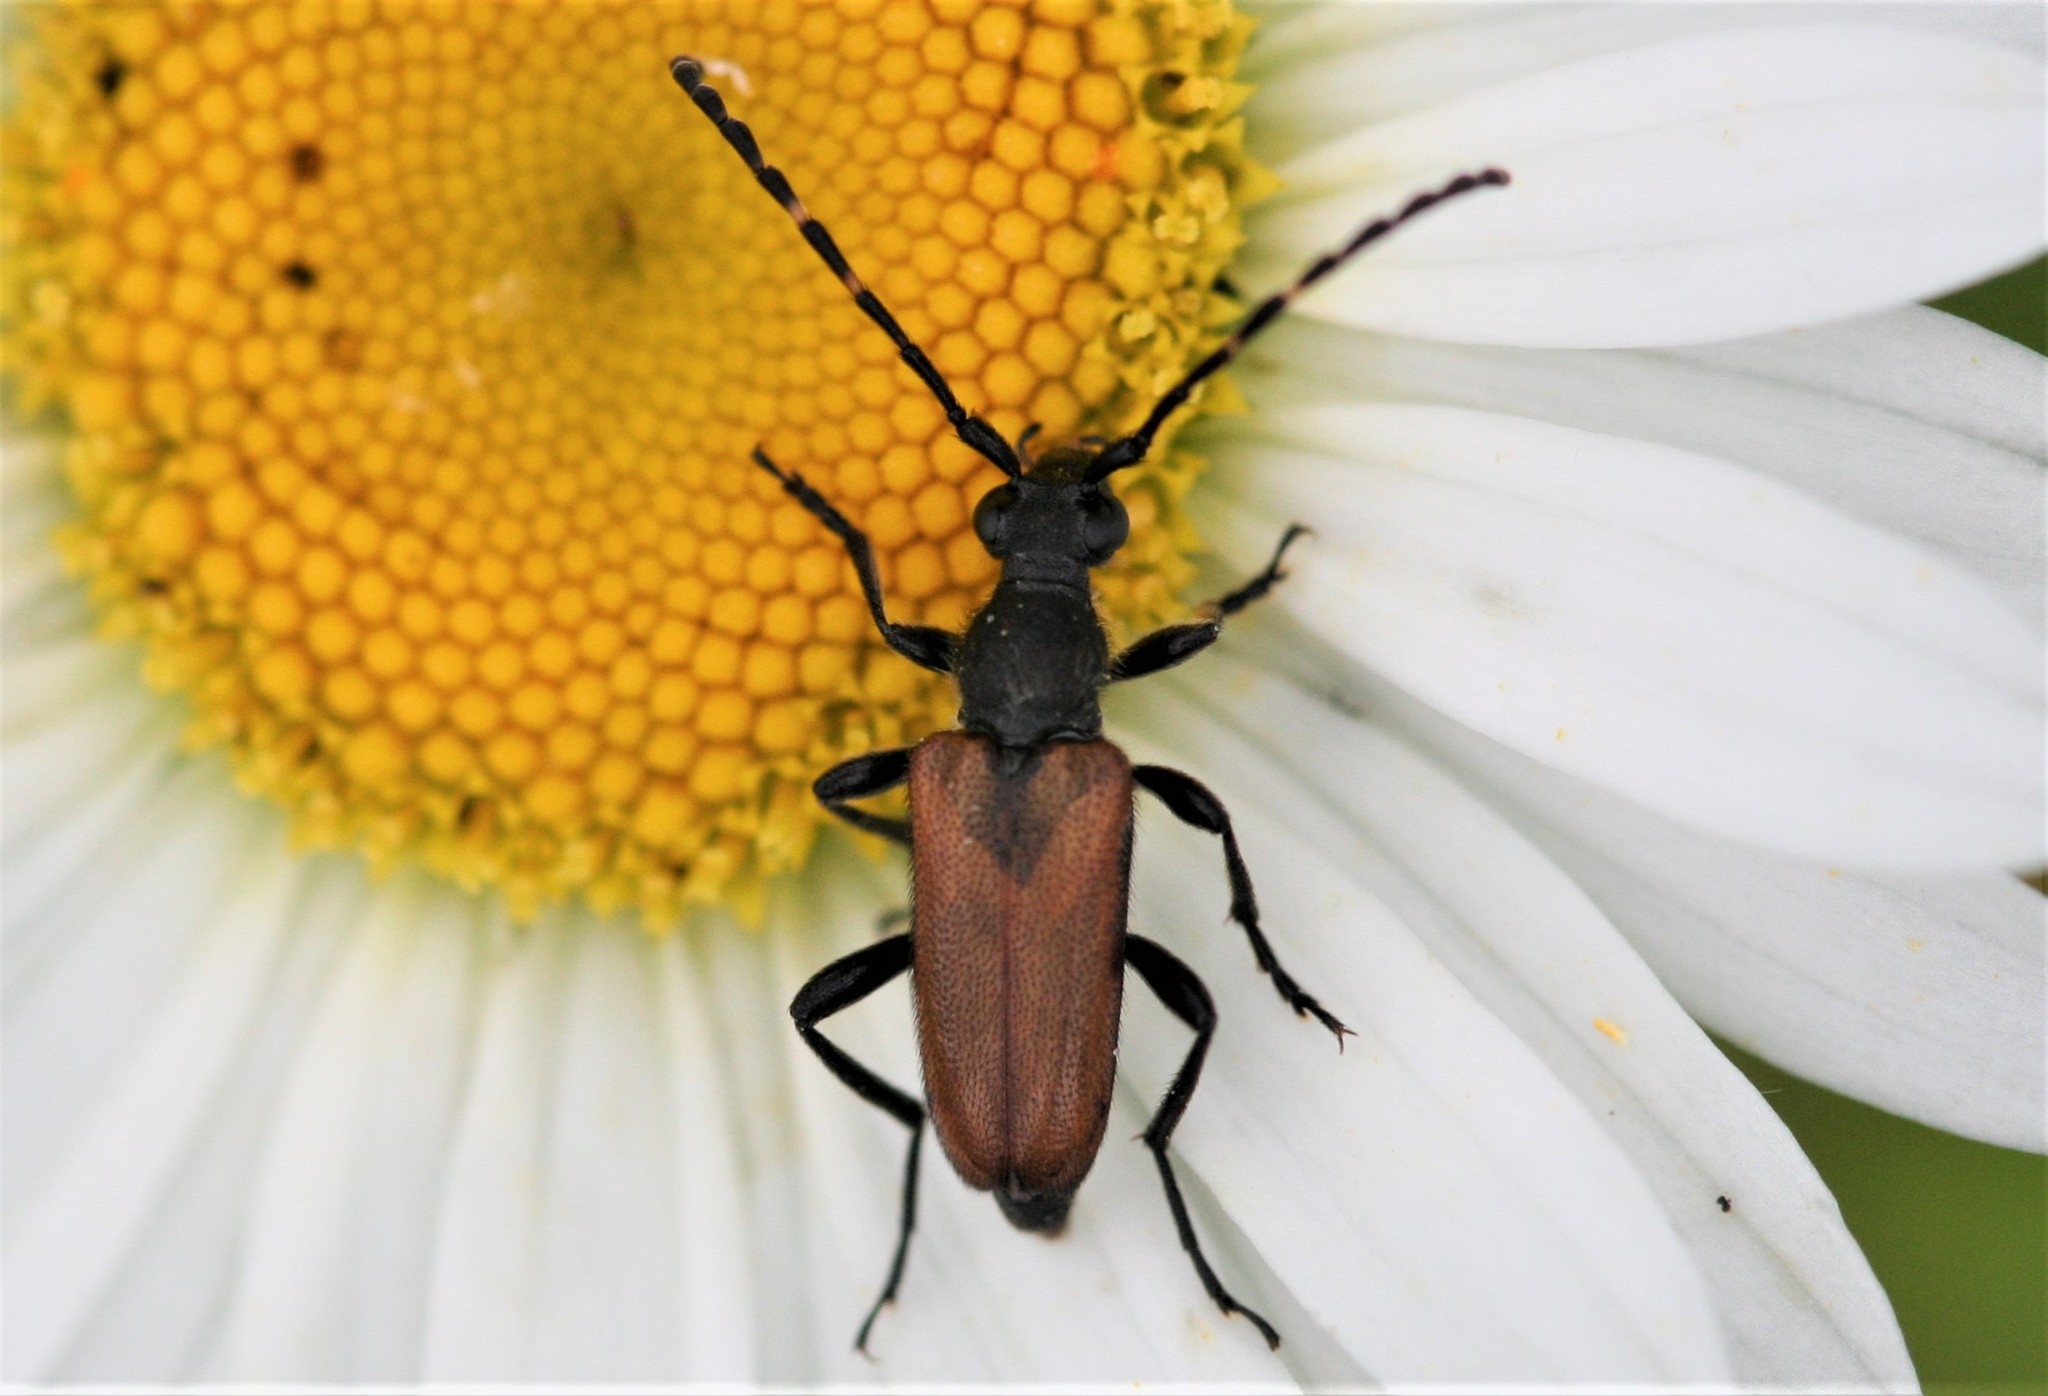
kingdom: Animalia
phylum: Arthropoda
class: Insecta
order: Coleoptera
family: Cerambycidae
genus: Paracorymbia
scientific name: Paracorymbia maculicornis
